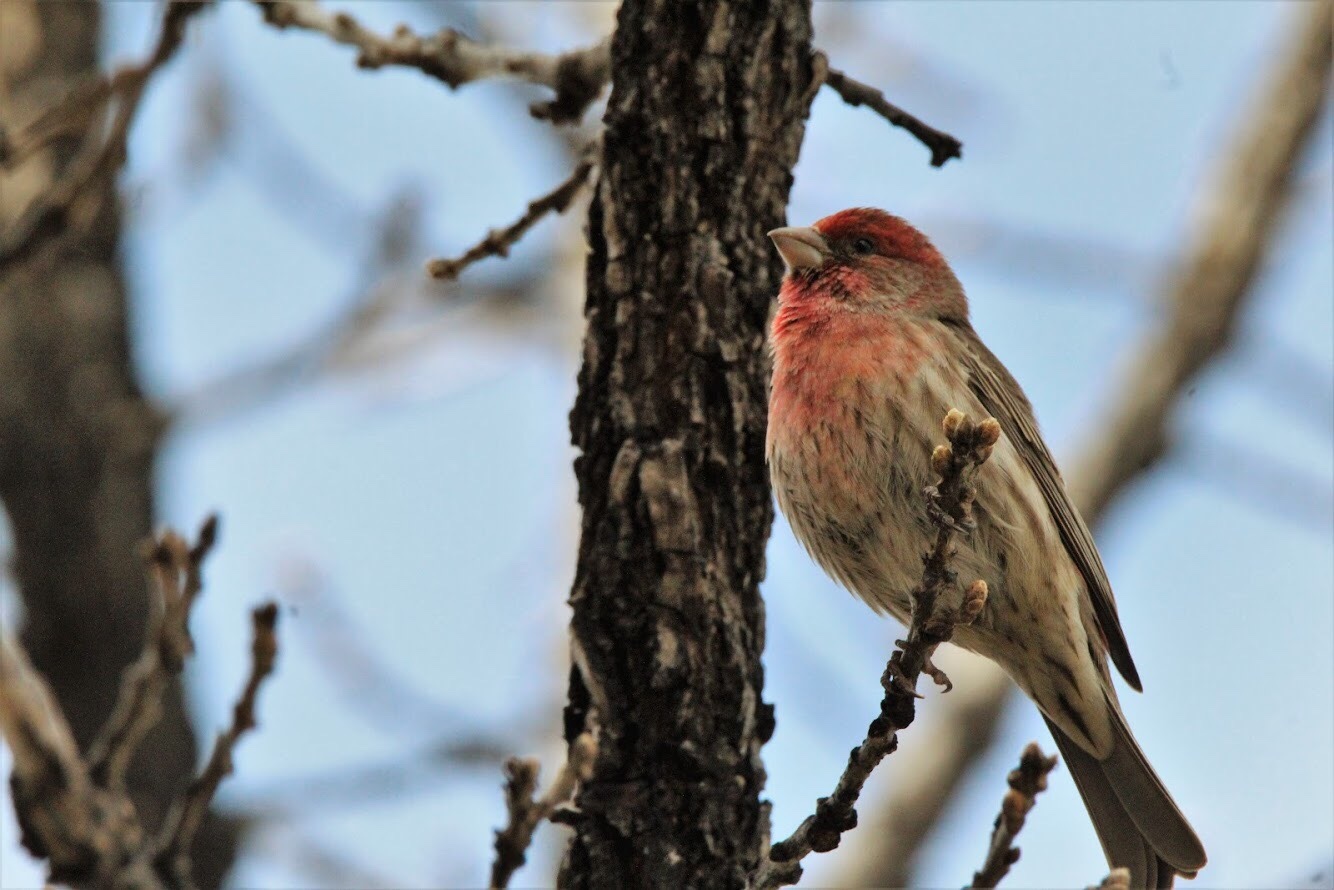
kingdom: Animalia
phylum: Chordata
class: Aves
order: Passeriformes
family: Fringillidae
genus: Haemorhous
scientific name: Haemorhous mexicanus
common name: House finch
